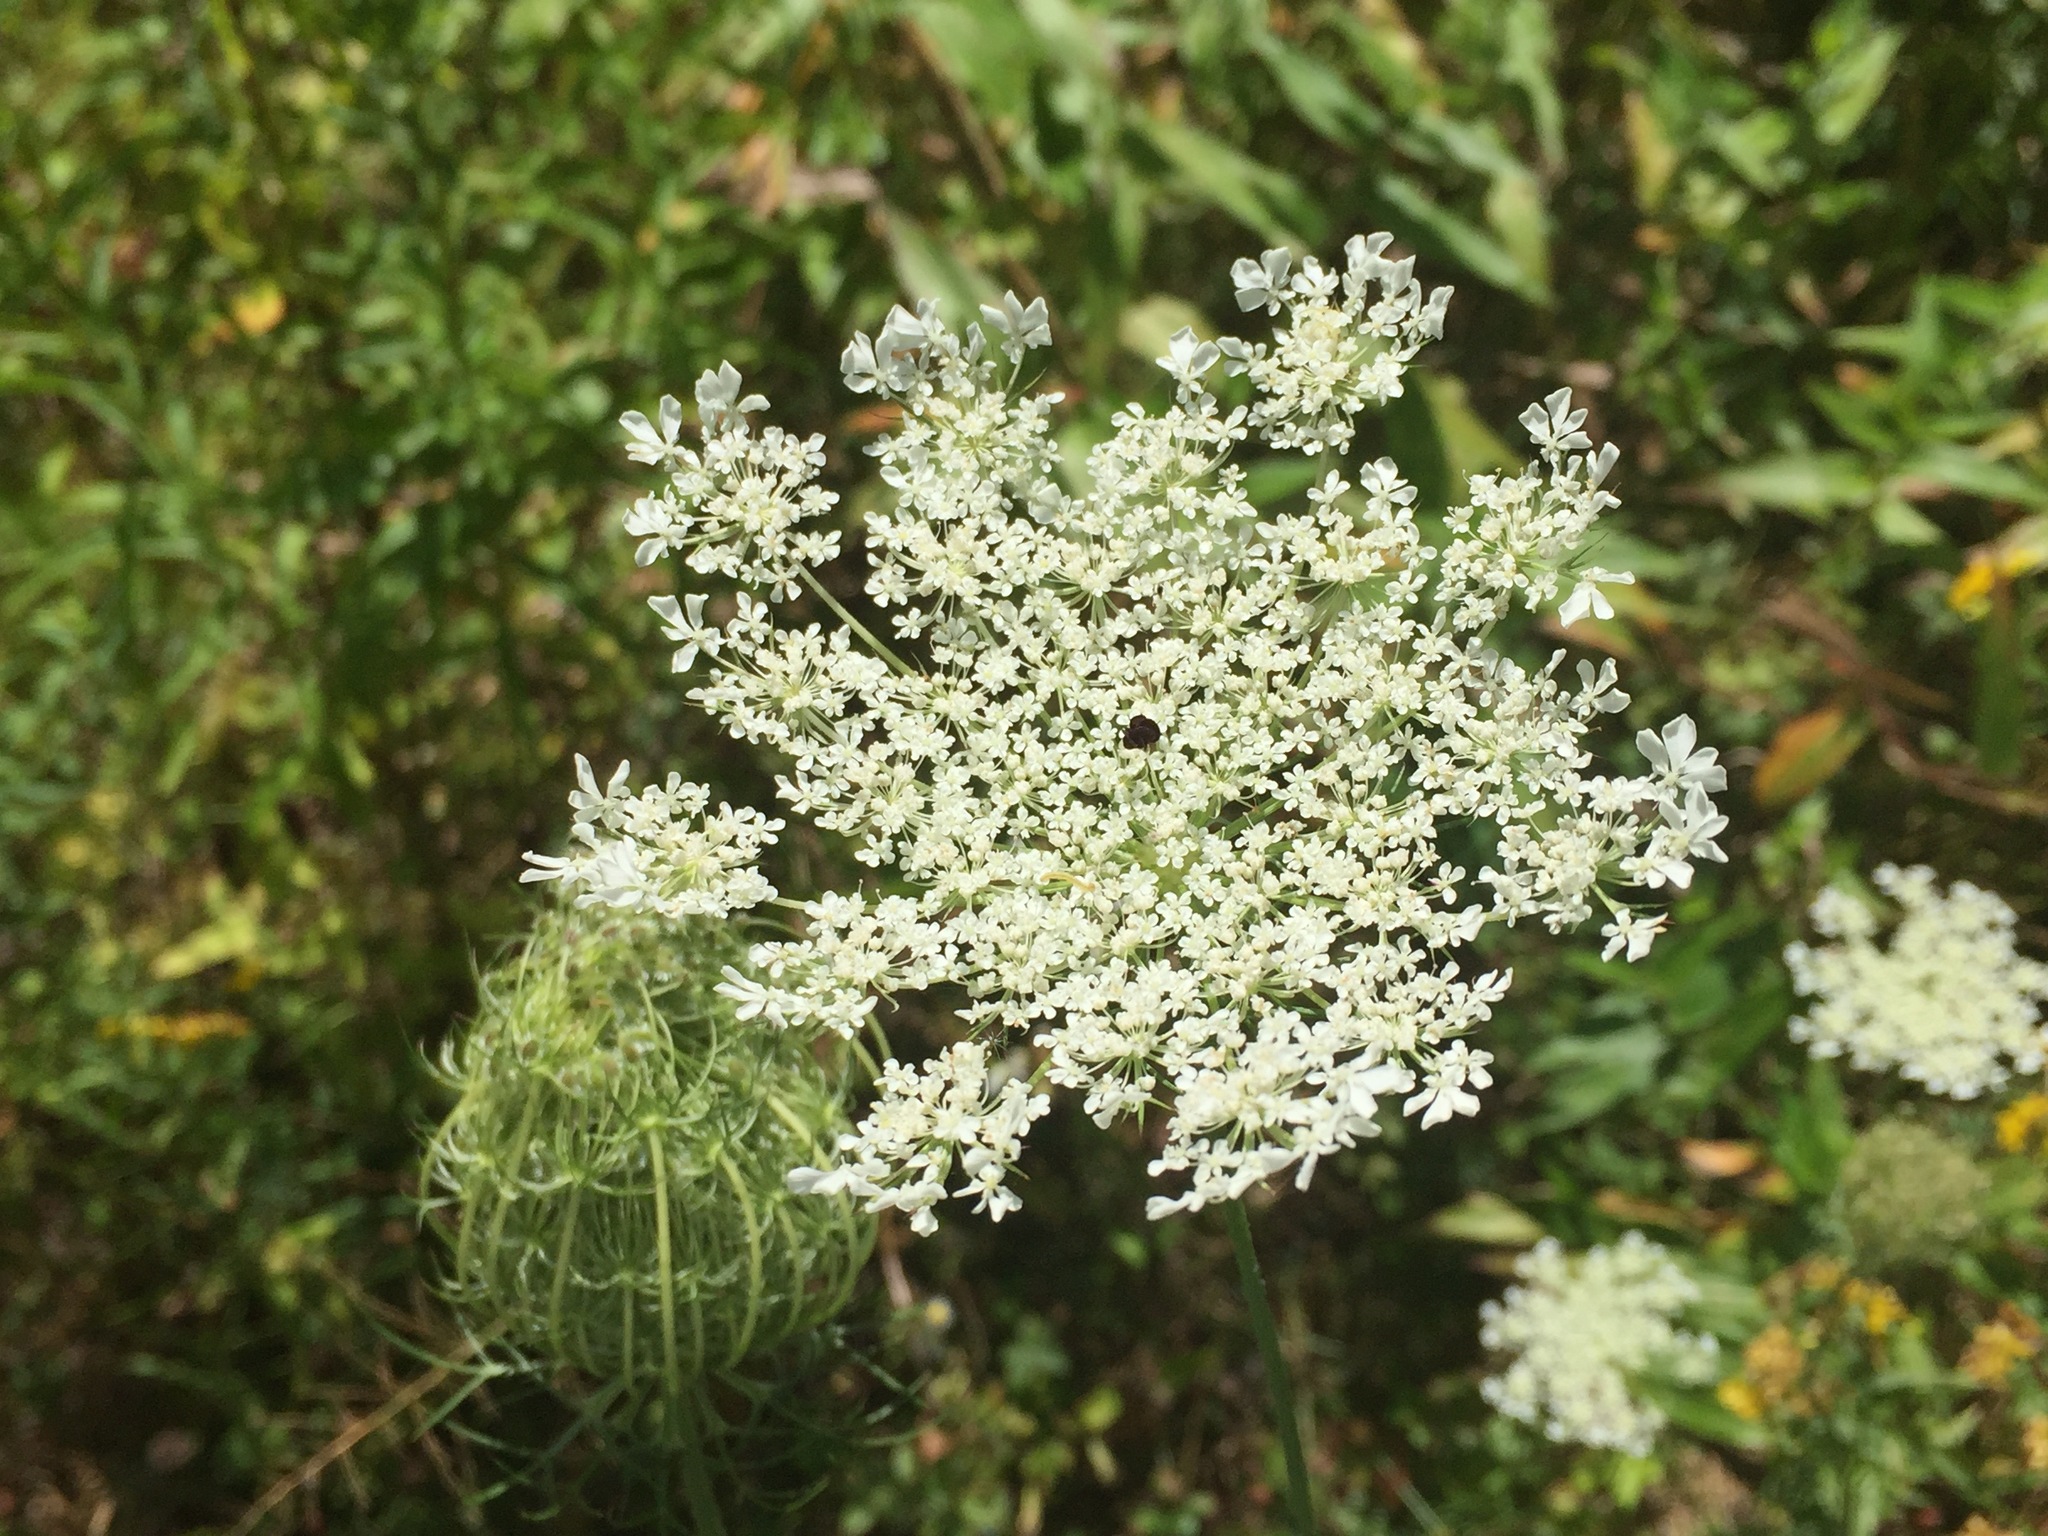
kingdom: Plantae
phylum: Tracheophyta
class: Magnoliopsida
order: Apiales
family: Apiaceae
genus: Daucus
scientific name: Daucus carota
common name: Wild carrot
